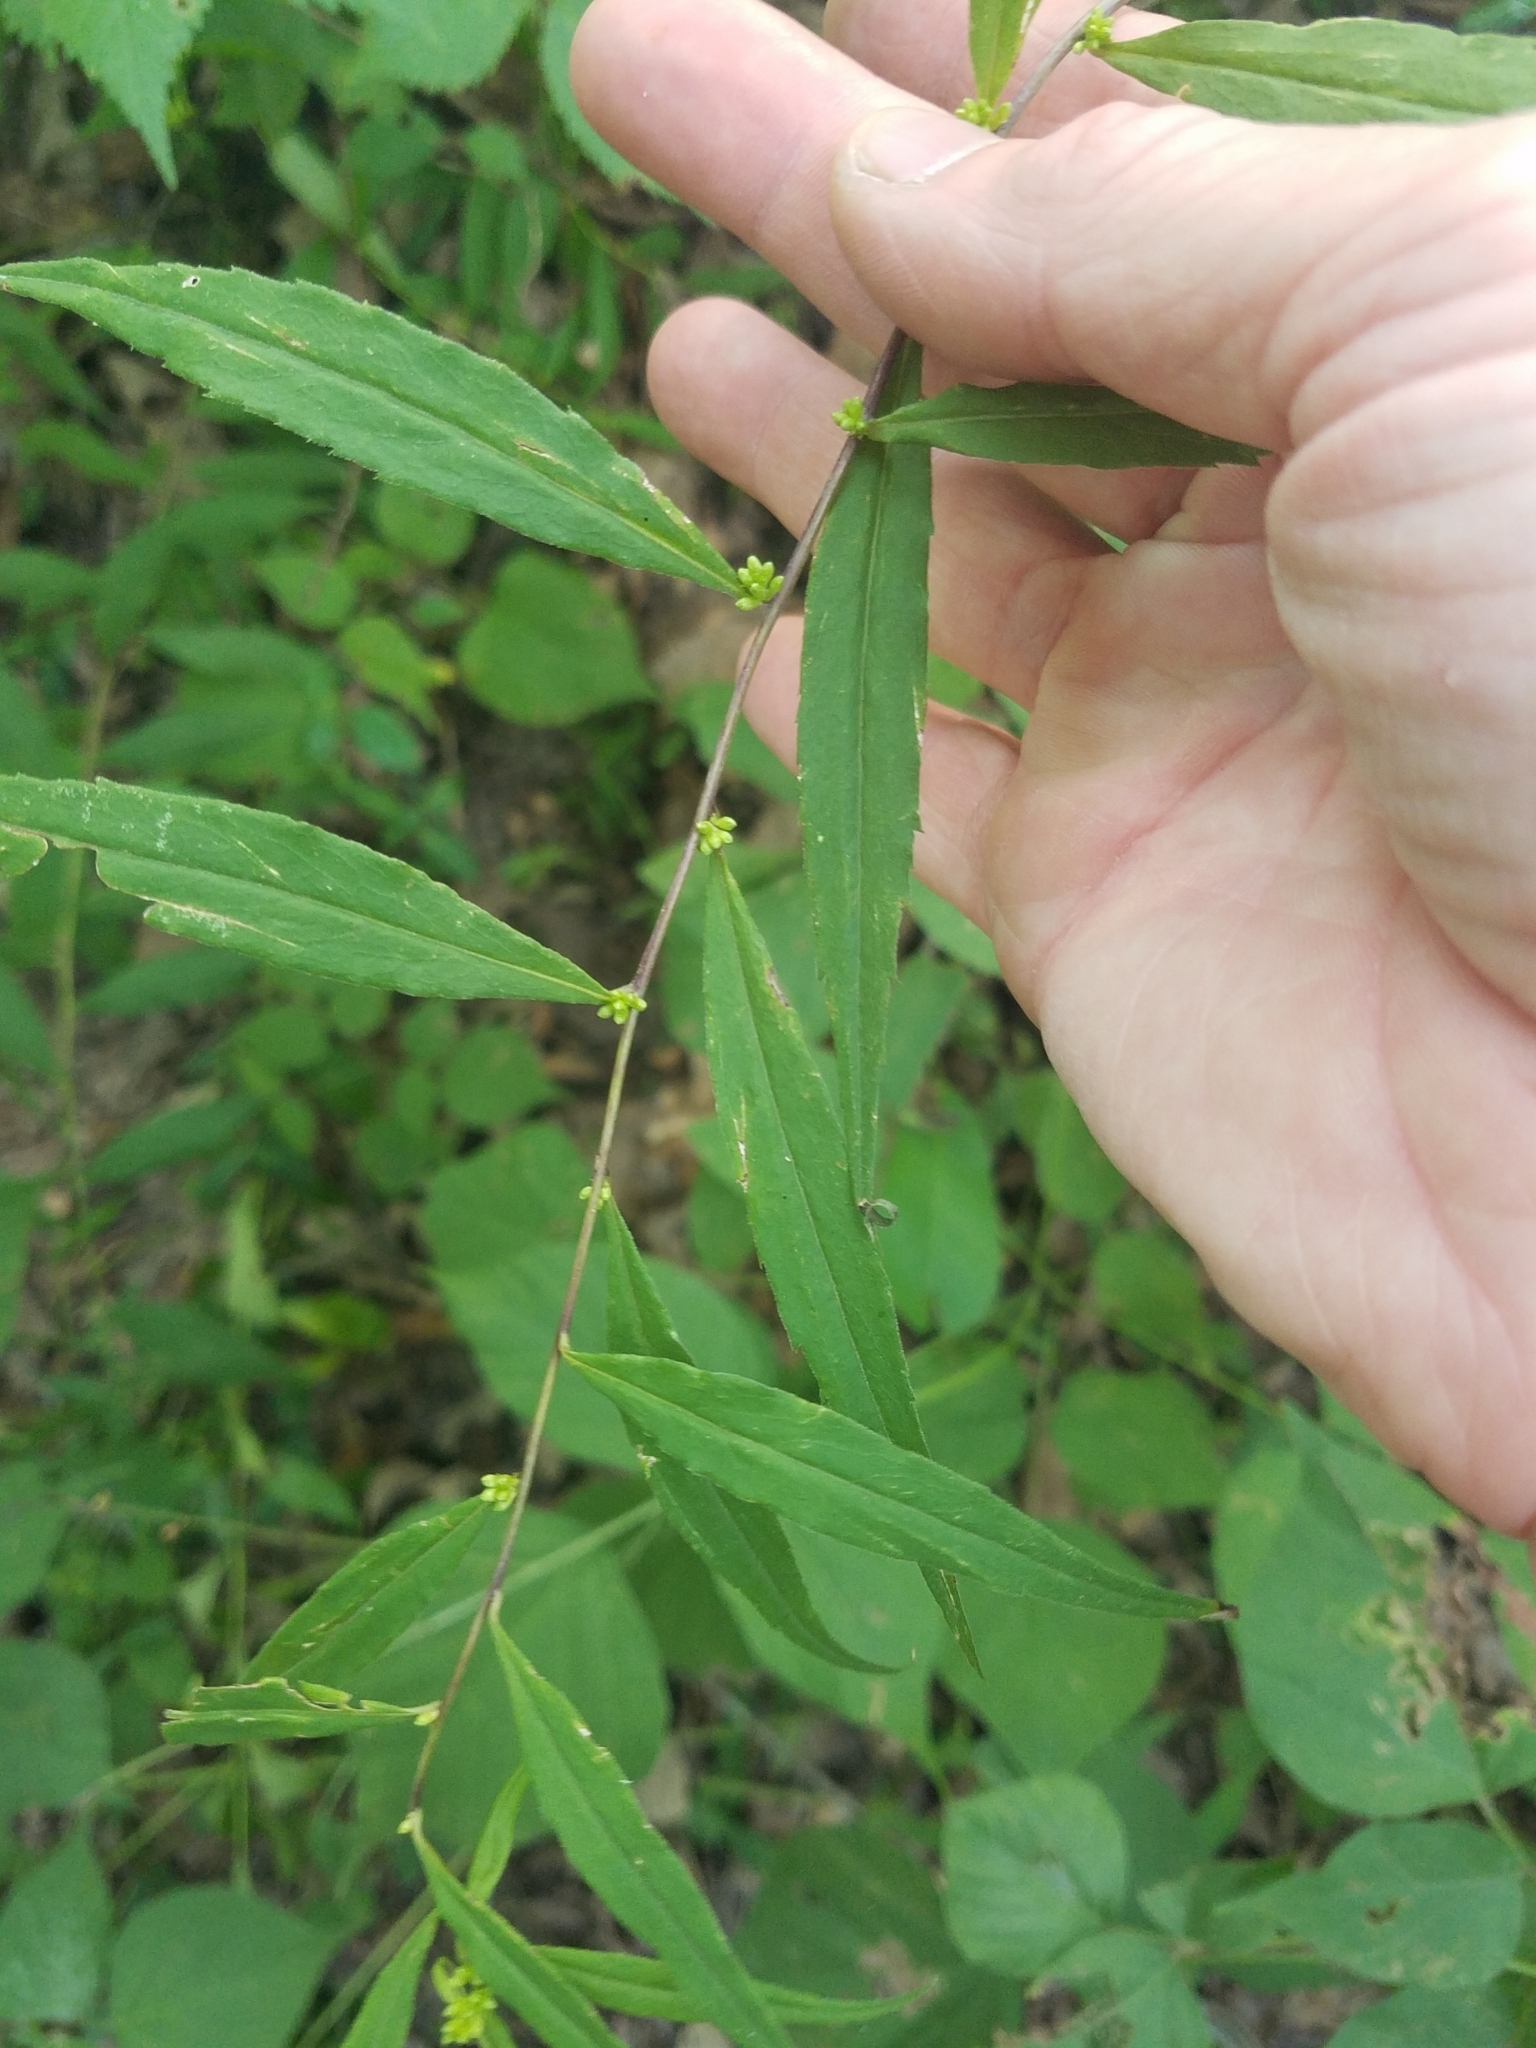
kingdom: Plantae
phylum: Tracheophyta
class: Magnoliopsida
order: Asterales
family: Asteraceae
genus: Solidago
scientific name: Solidago caesia
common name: Woodland goldenrod
